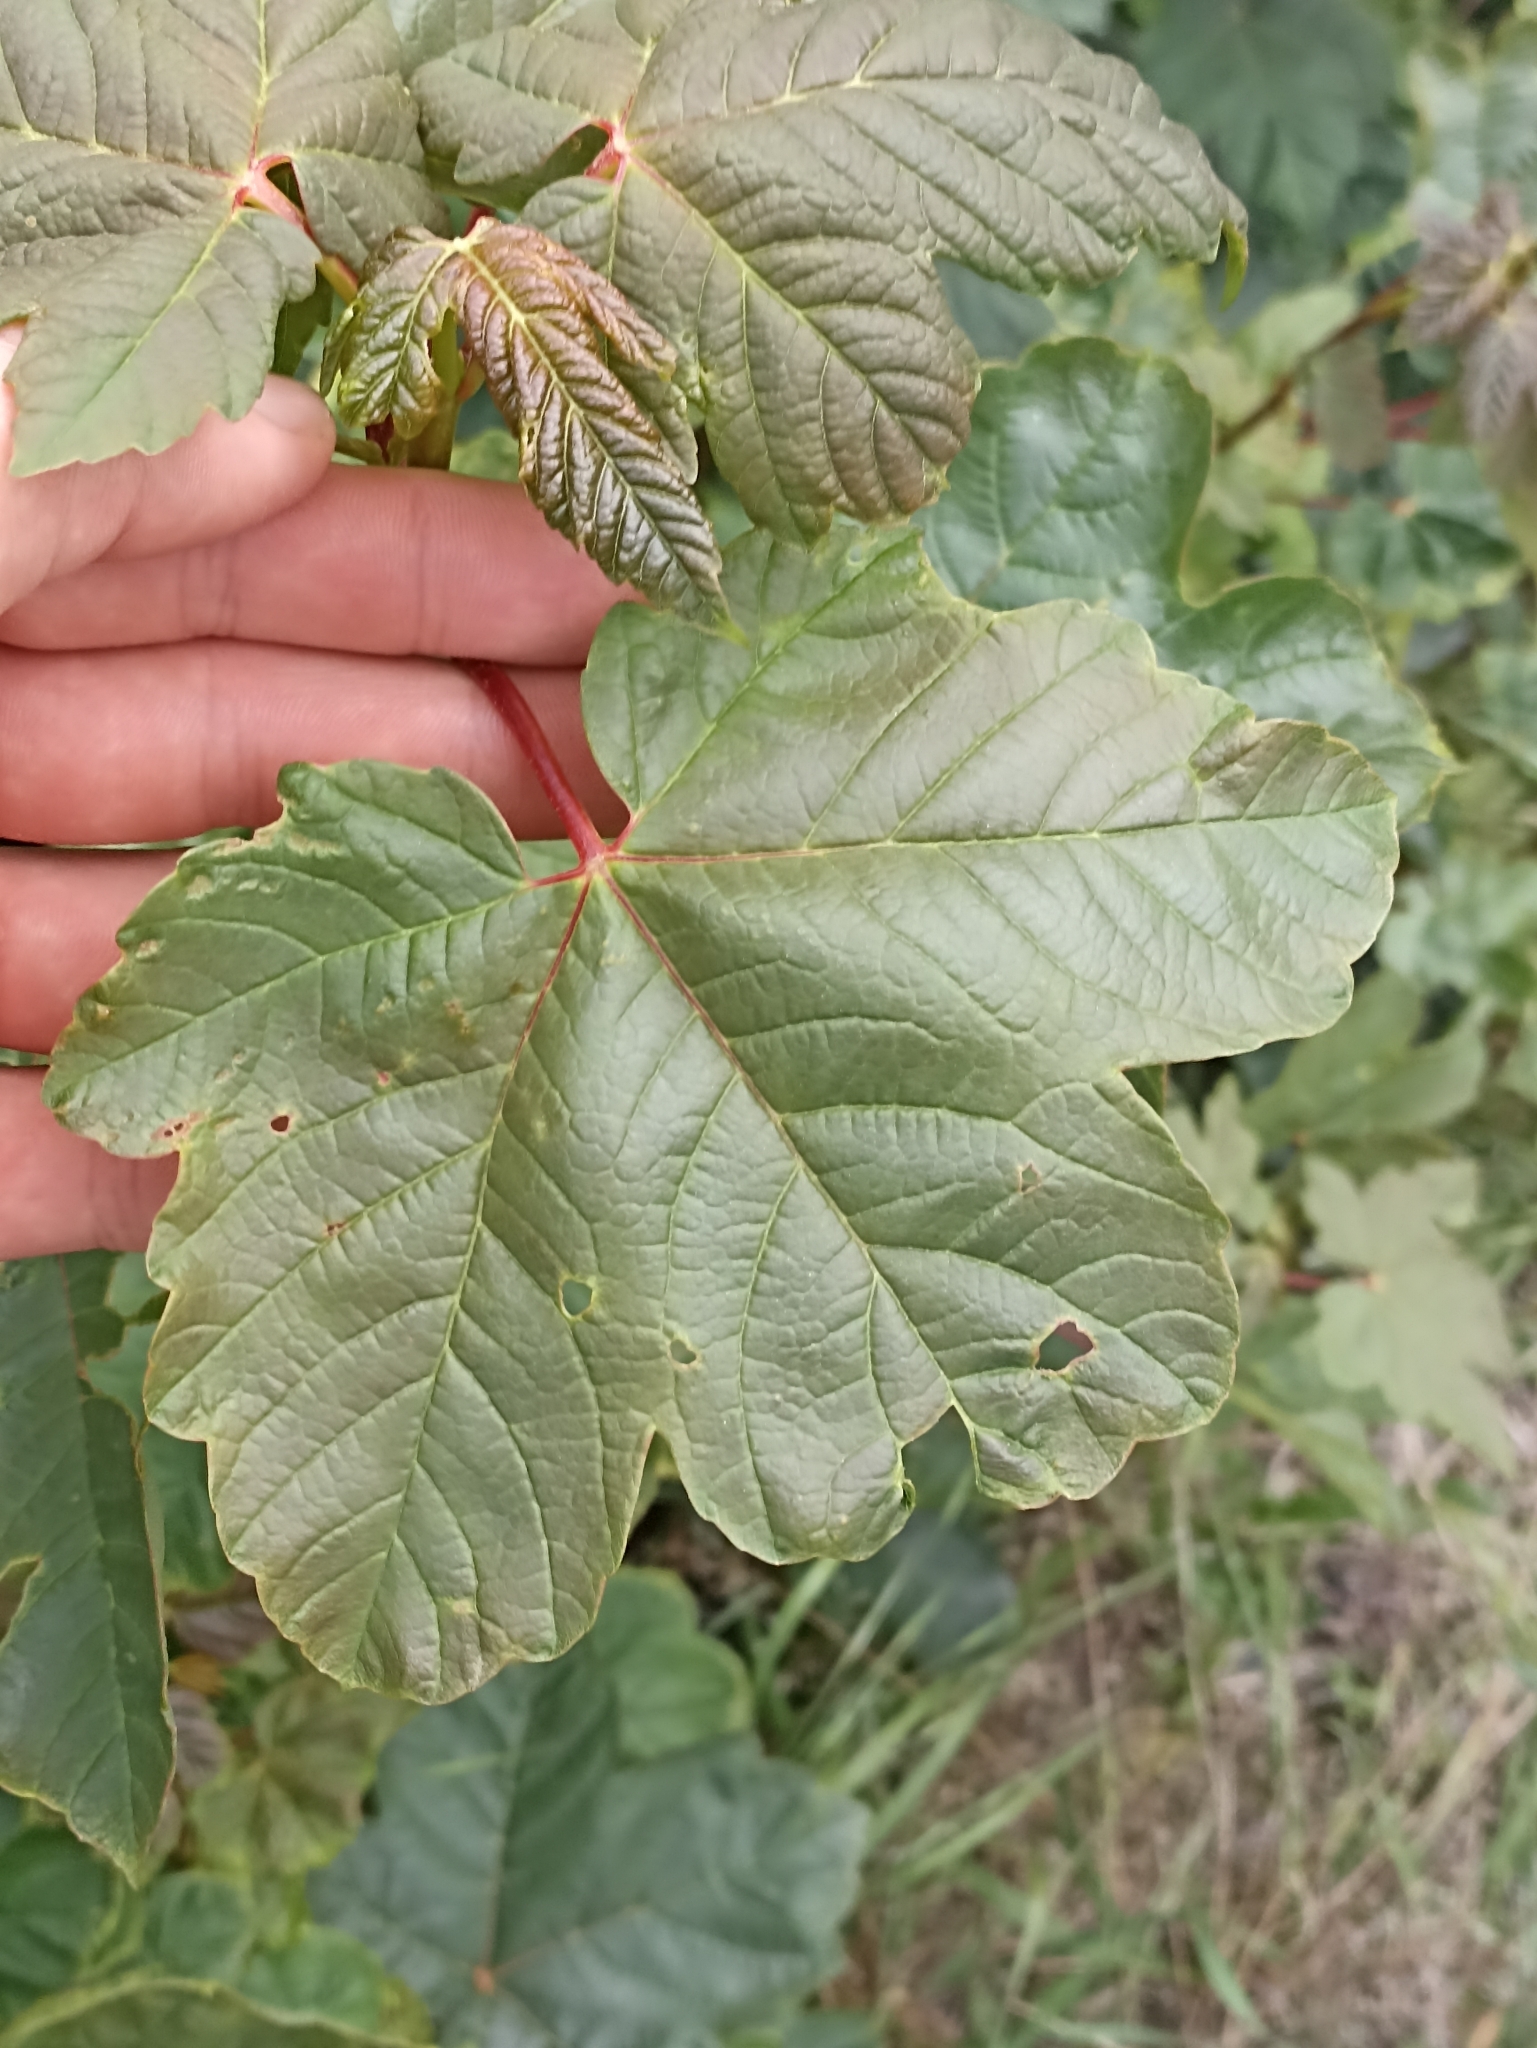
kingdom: Plantae
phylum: Tracheophyta
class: Magnoliopsida
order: Sapindales
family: Sapindaceae
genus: Acer
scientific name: Acer pseudoplatanus
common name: Sycamore
